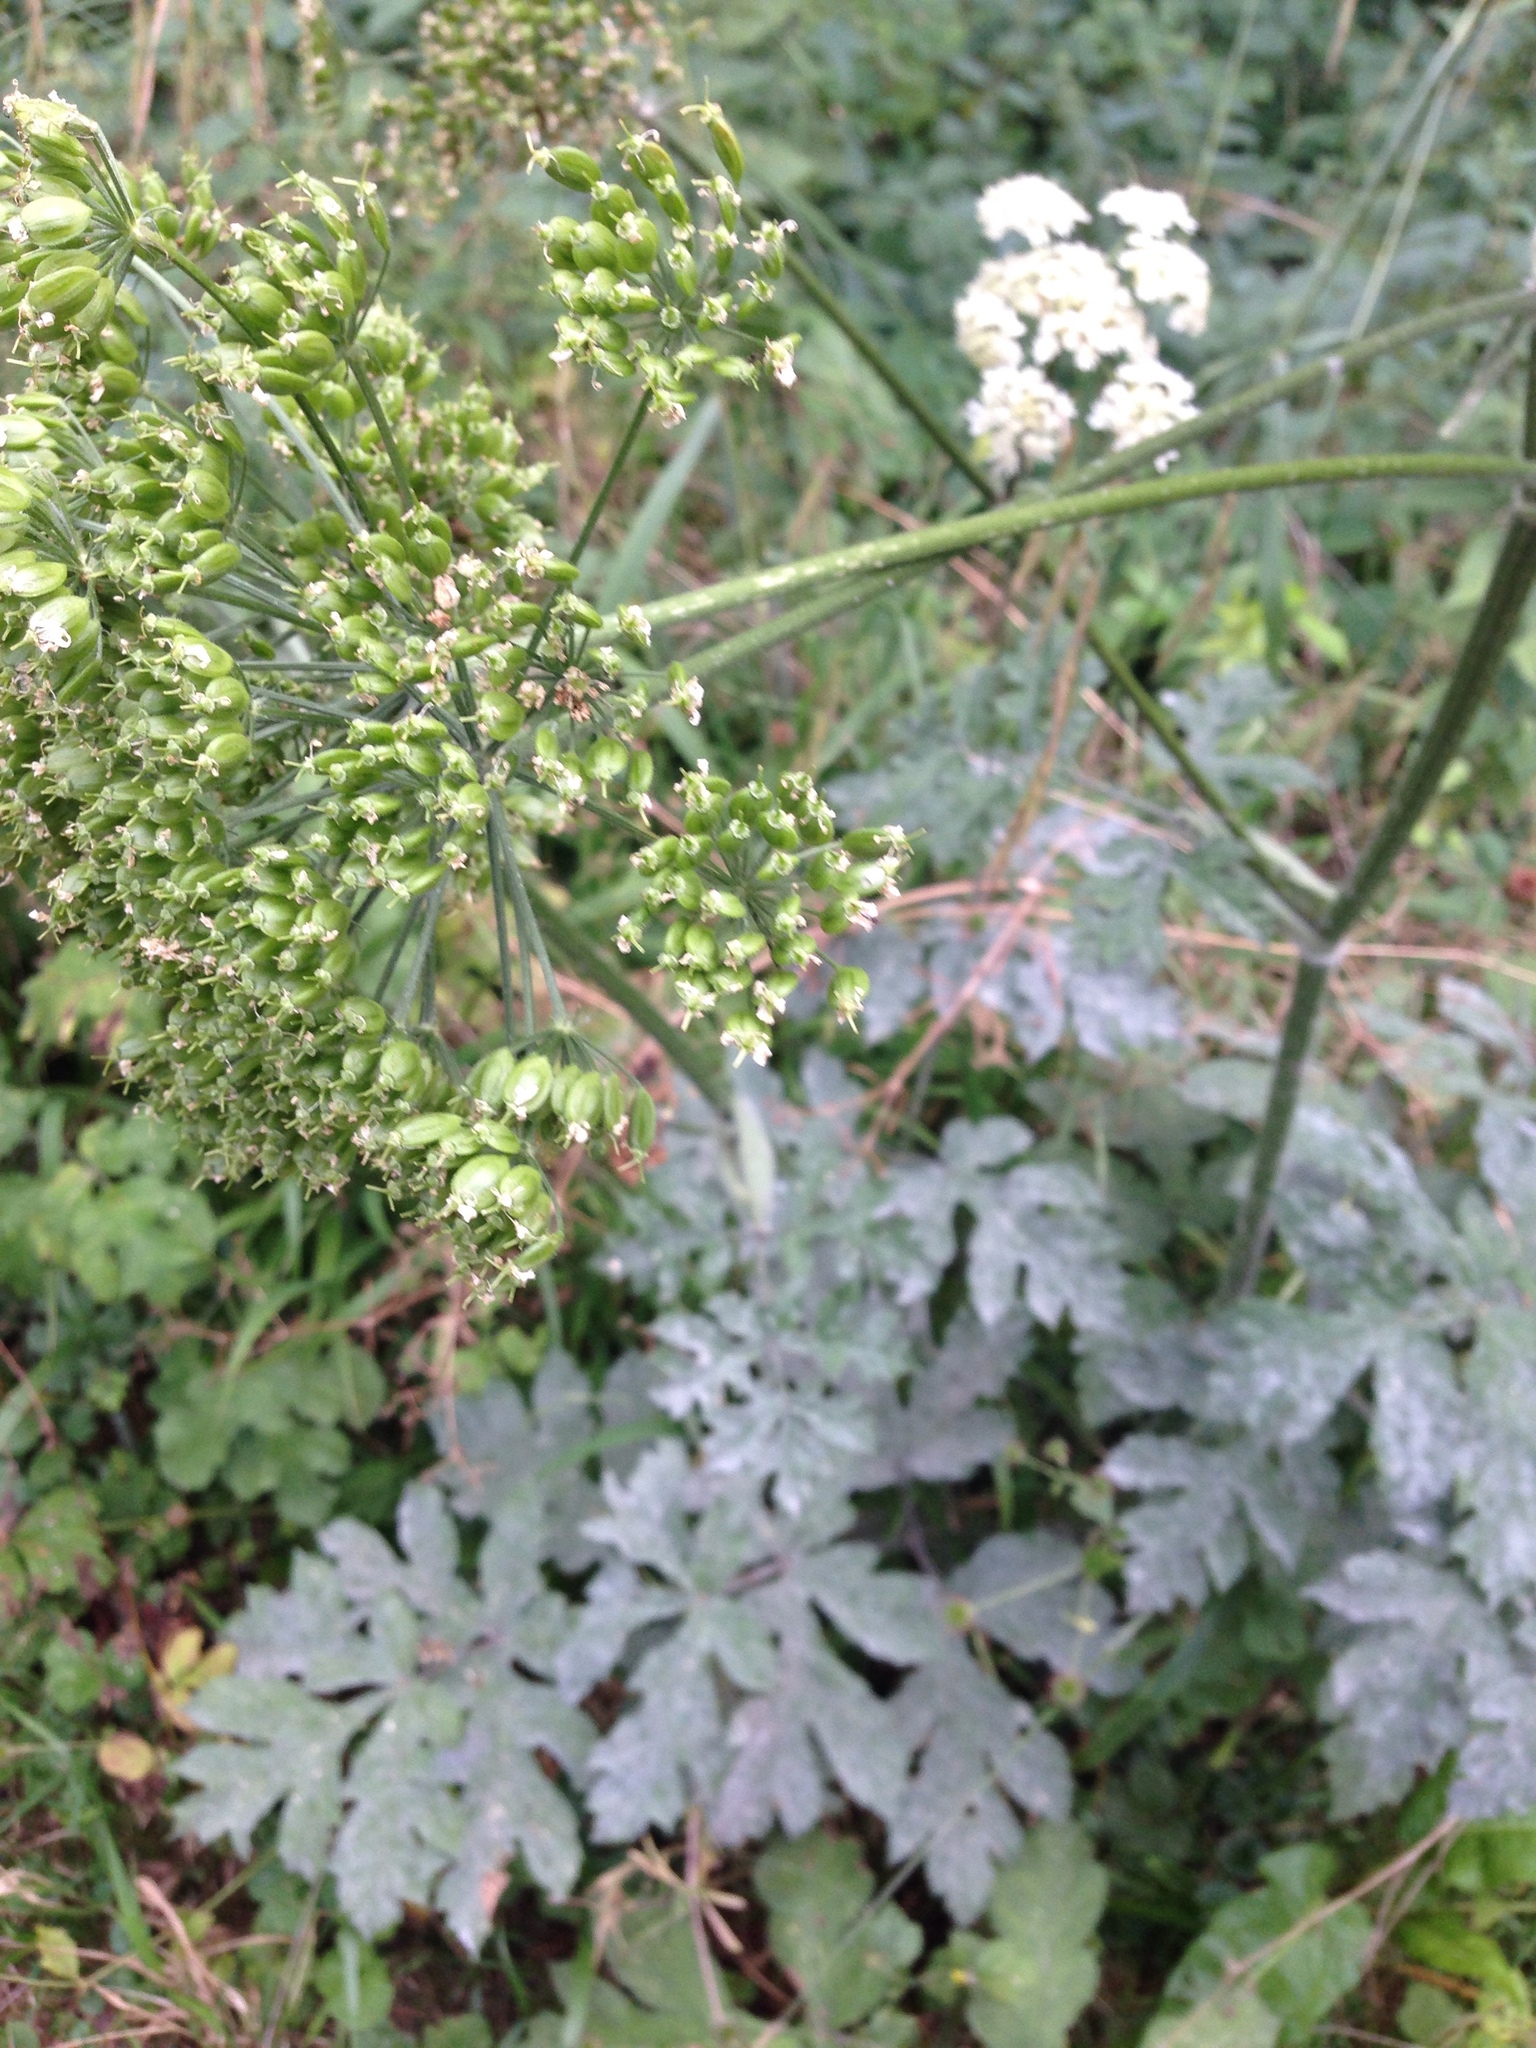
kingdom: Plantae
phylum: Tracheophyta
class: Magnoliopsida
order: Apiales
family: Apiaceae
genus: Heracleum
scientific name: Heracleum sphondylium
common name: Hogweed
